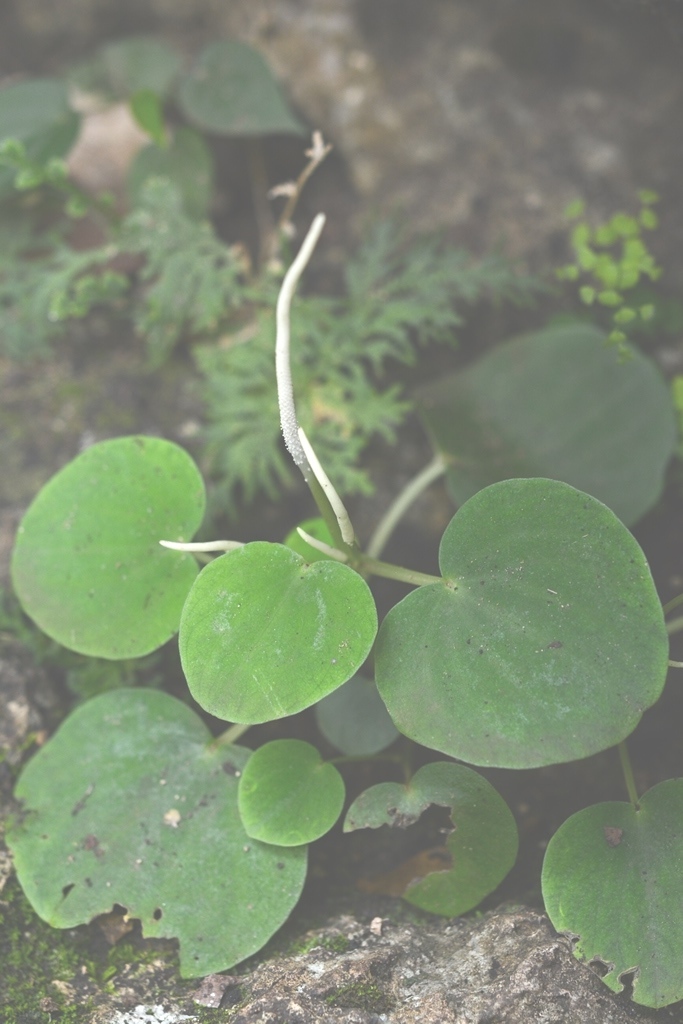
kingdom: Plantae
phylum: Tracheophyta
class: Magnoliopsida
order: Piperales
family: Piperaceae
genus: Peperomia
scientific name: Peperomia lanceolatopeltata
